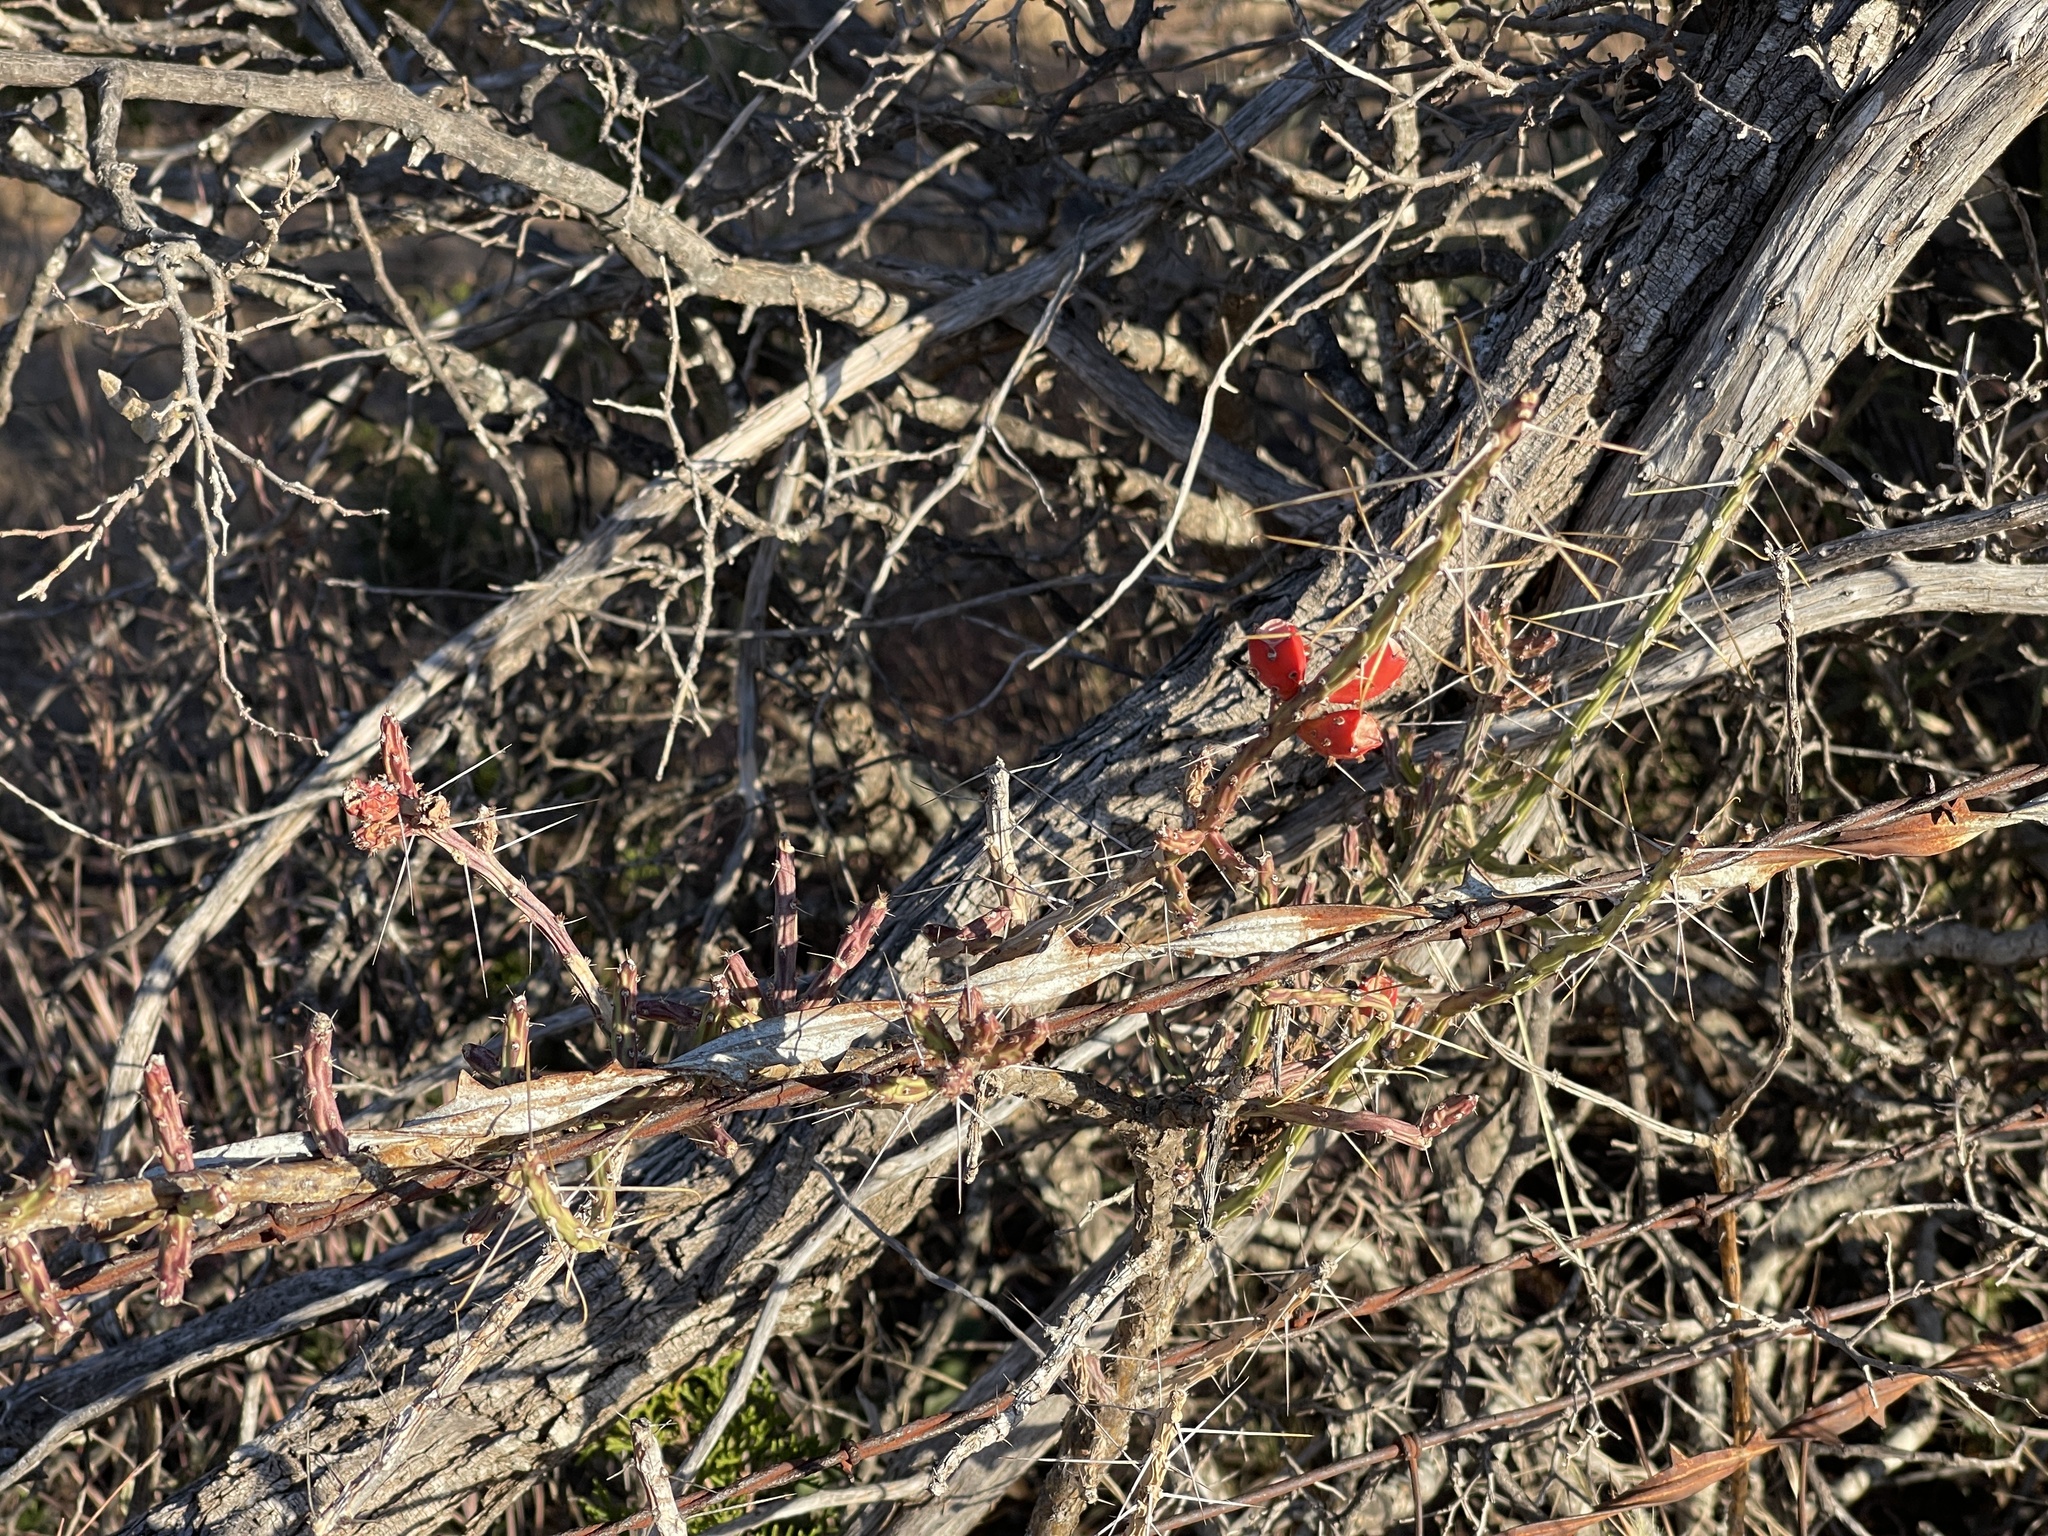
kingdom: Plantae
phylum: Tracheophyta
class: Magnoliopsida
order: Caryophyllales
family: Cactaceae
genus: Cylindropuntia
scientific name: Cylindropuntia leptocaulis
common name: Christmas cactus
